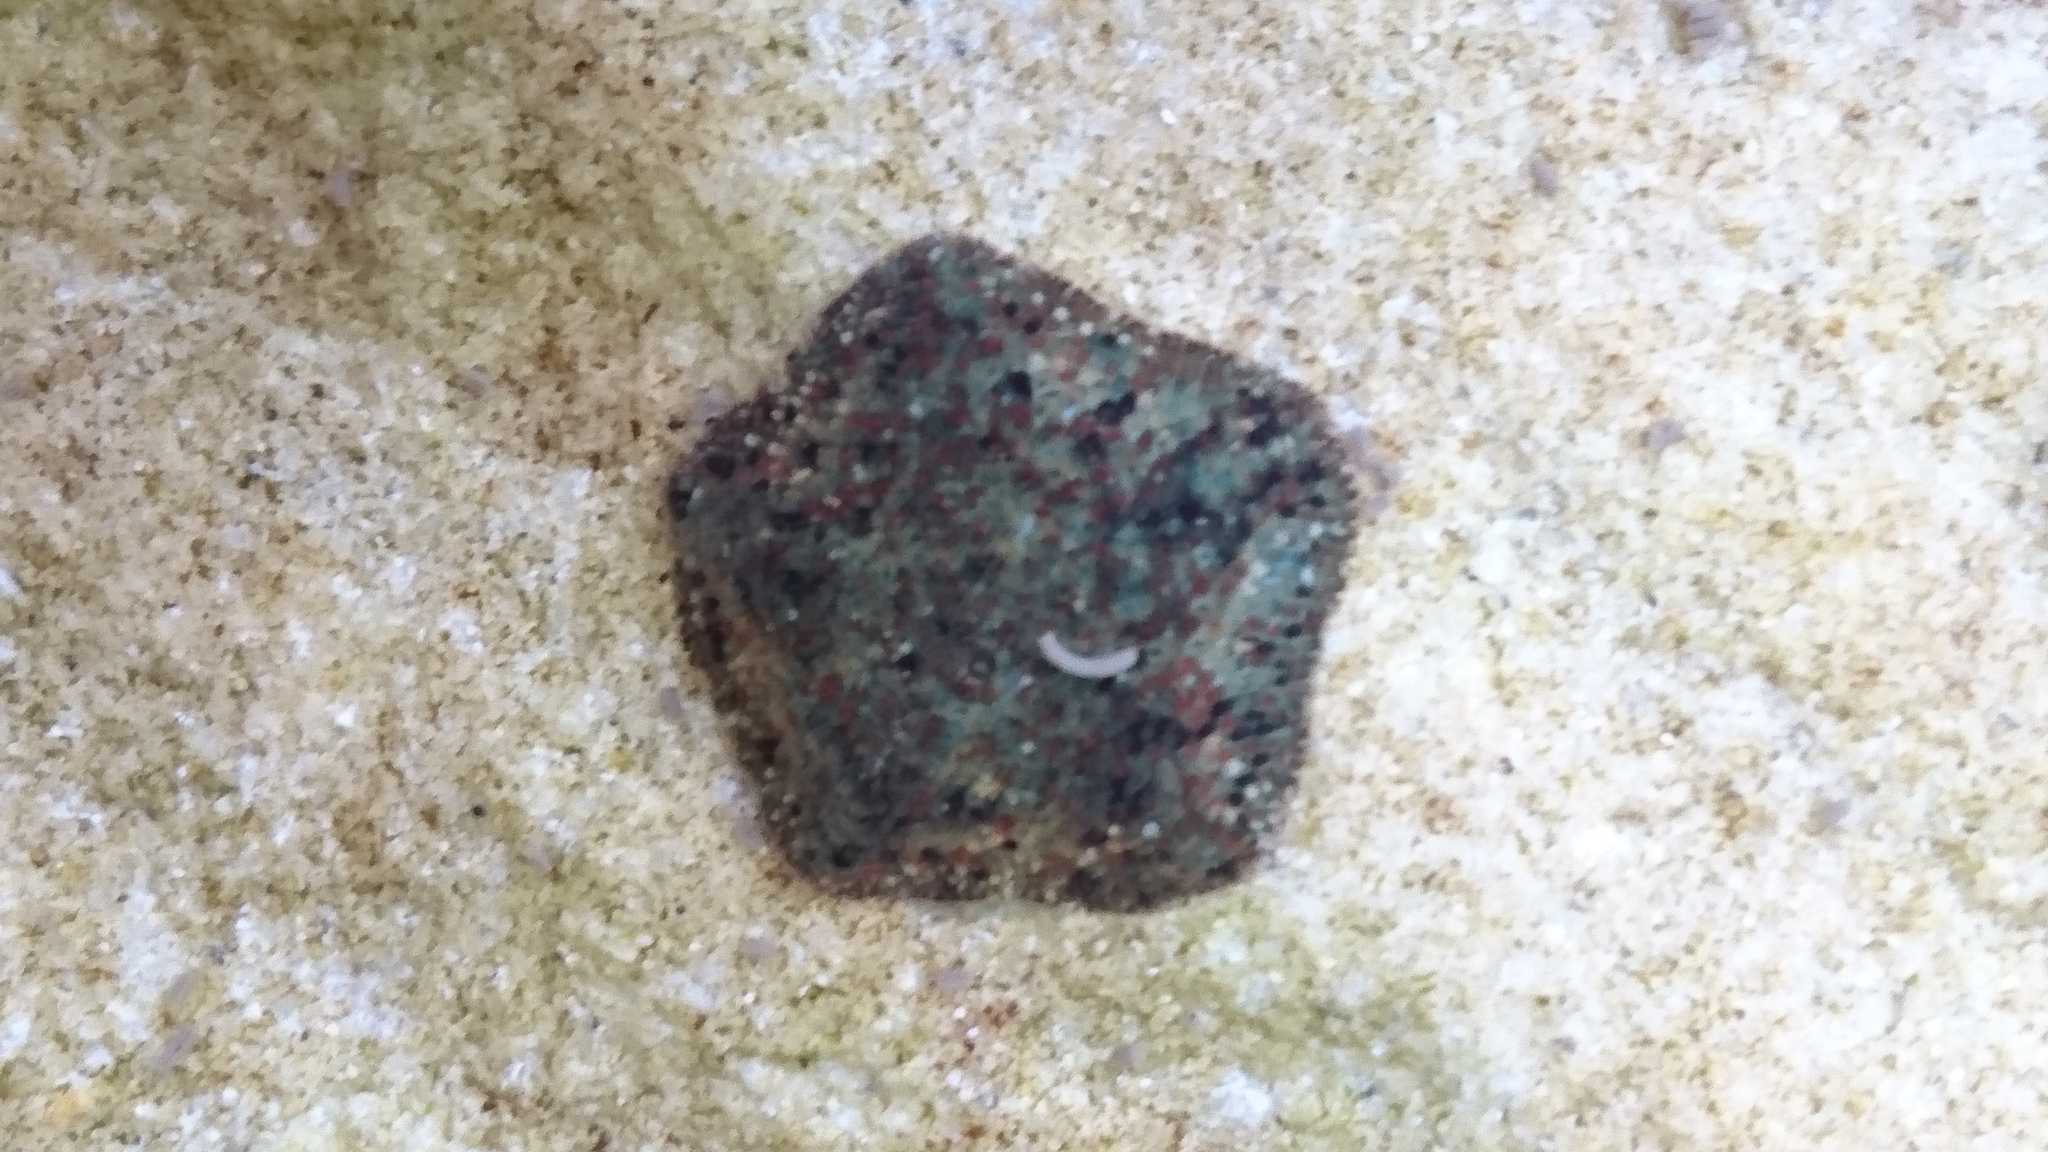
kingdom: Animalia
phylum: Echinodermata
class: Asteroidea
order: Valvatida
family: Asterinidae
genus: Parvulastra
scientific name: Parvulastra exigua
